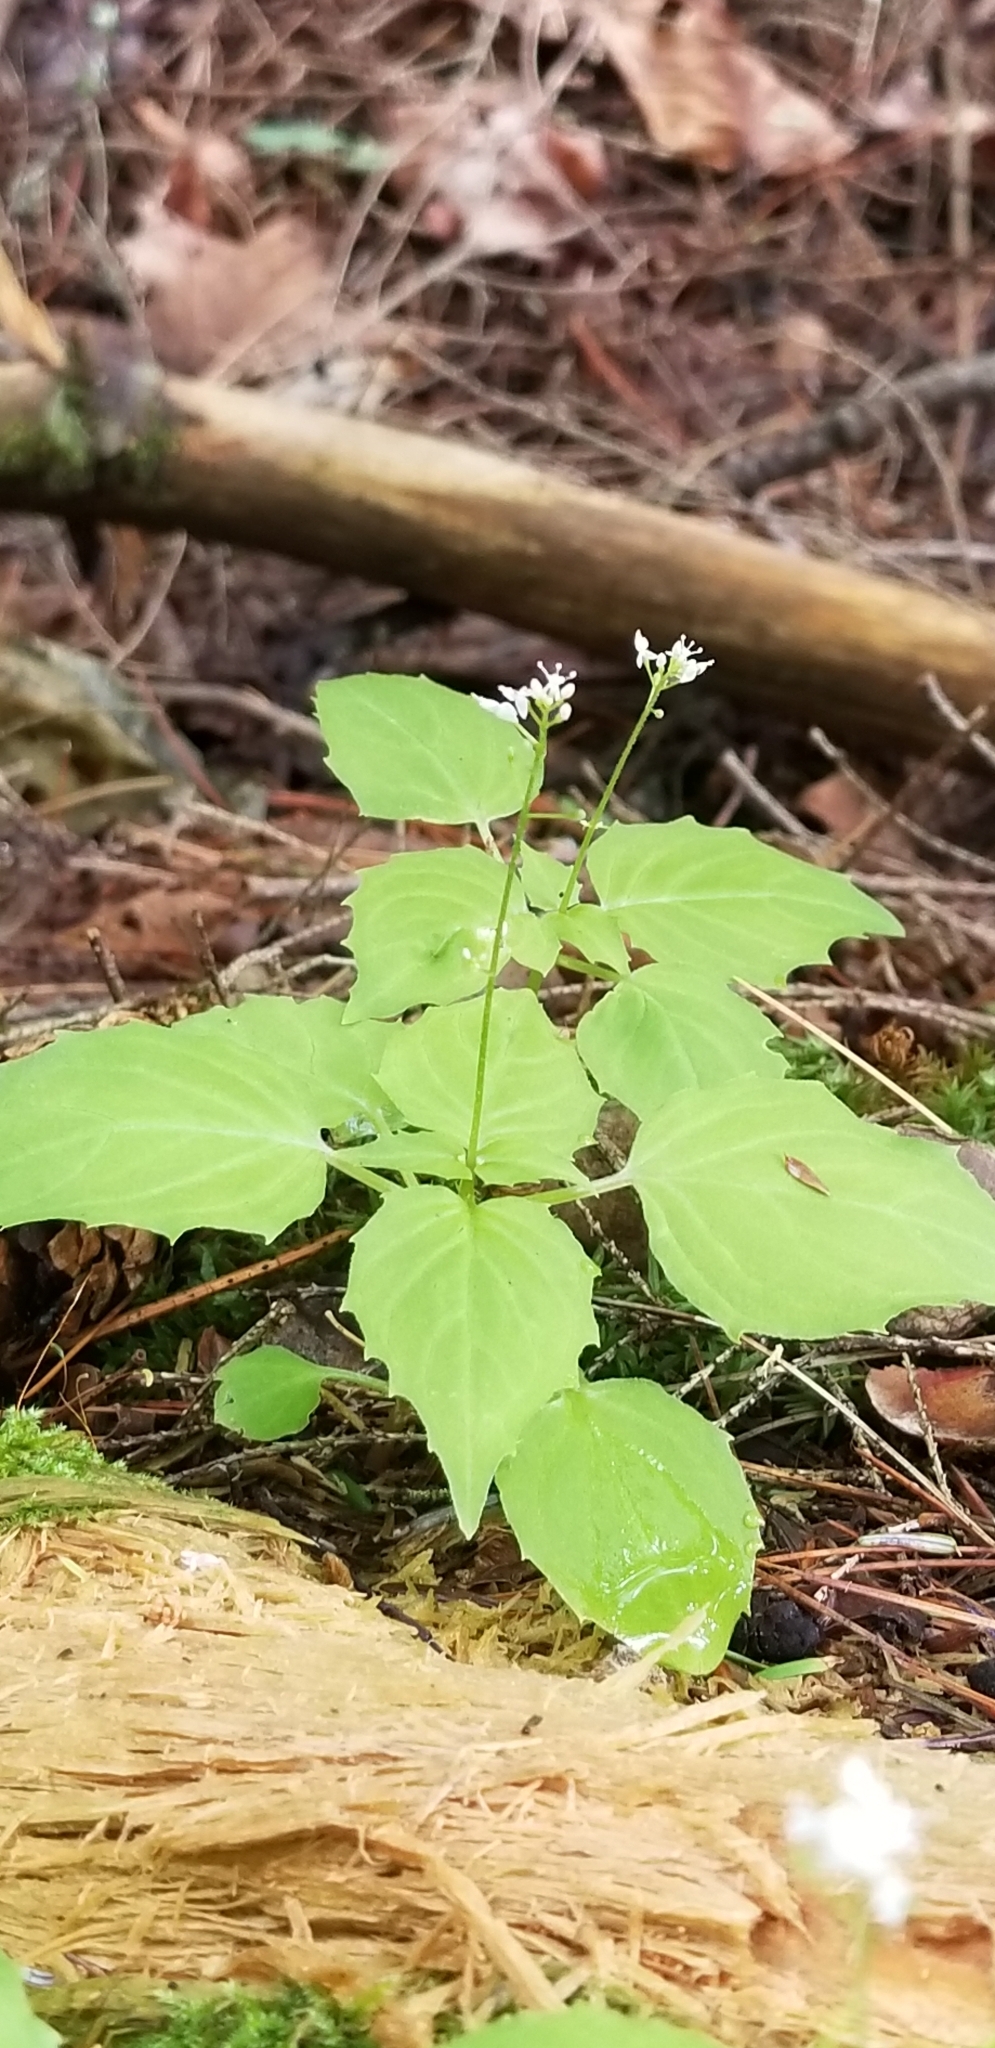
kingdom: Plantae
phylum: Tracheophyta
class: Magnoliopsida
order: Myrtales
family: Onagraceae
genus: Circaea
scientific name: Circaea alpina
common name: Alpine enchanter's-nightshade
